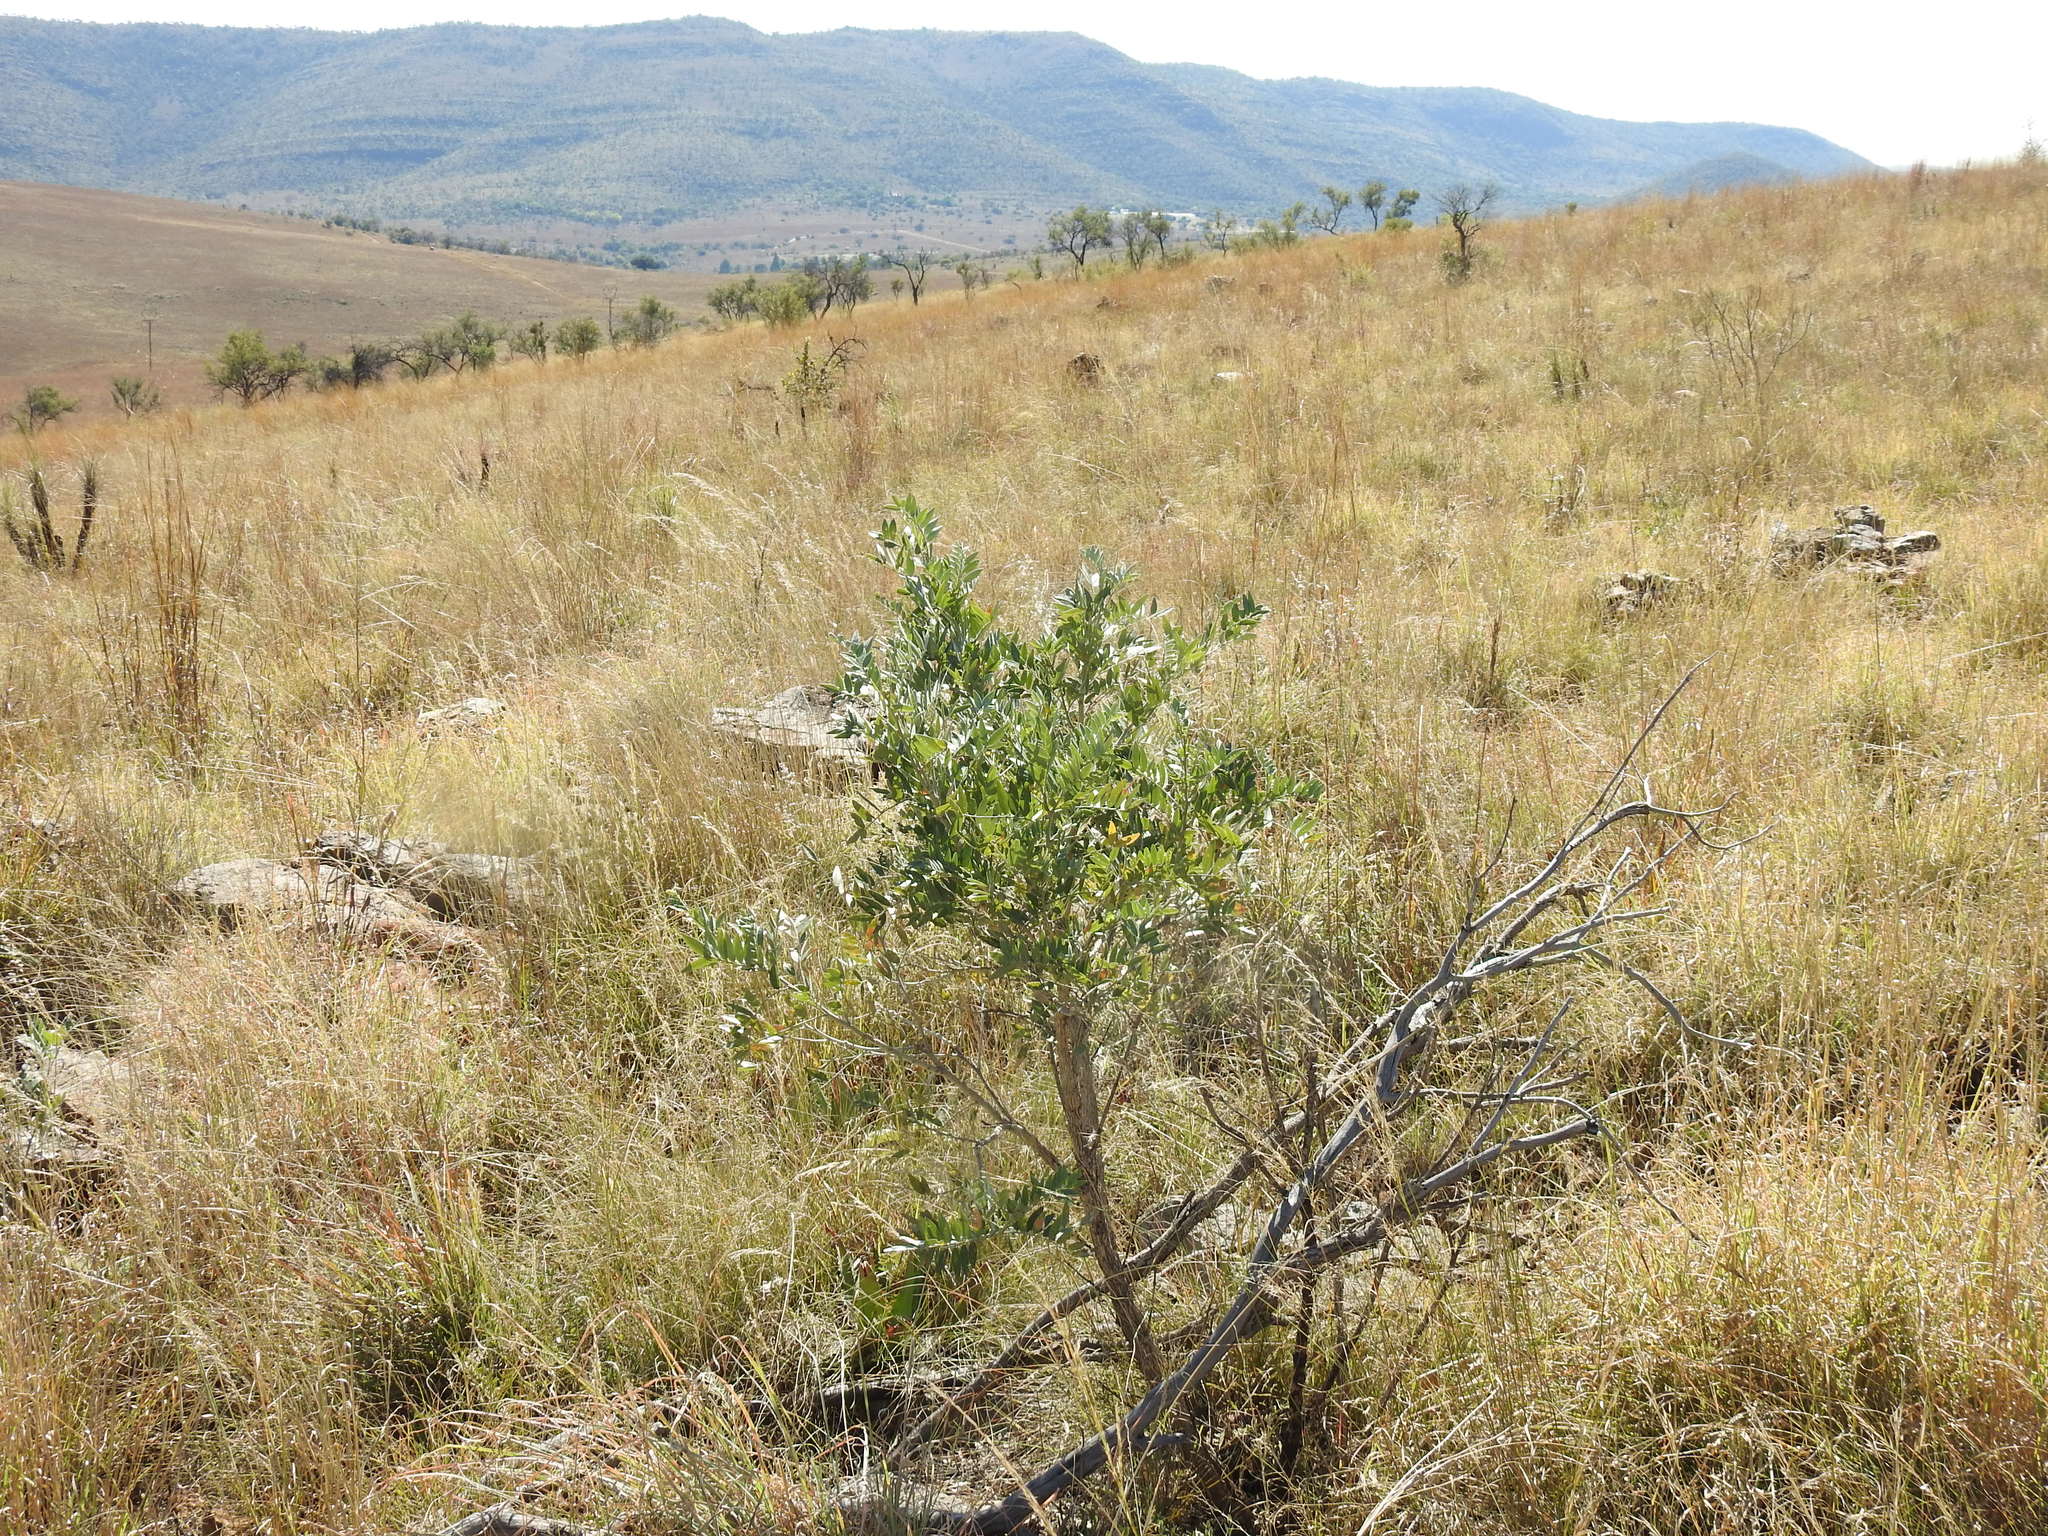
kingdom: Plantae
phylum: Tracheophyta
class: Magnoliopsida
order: Fabales
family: Fabaceae
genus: Mundulea
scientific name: Mundulea sericea
